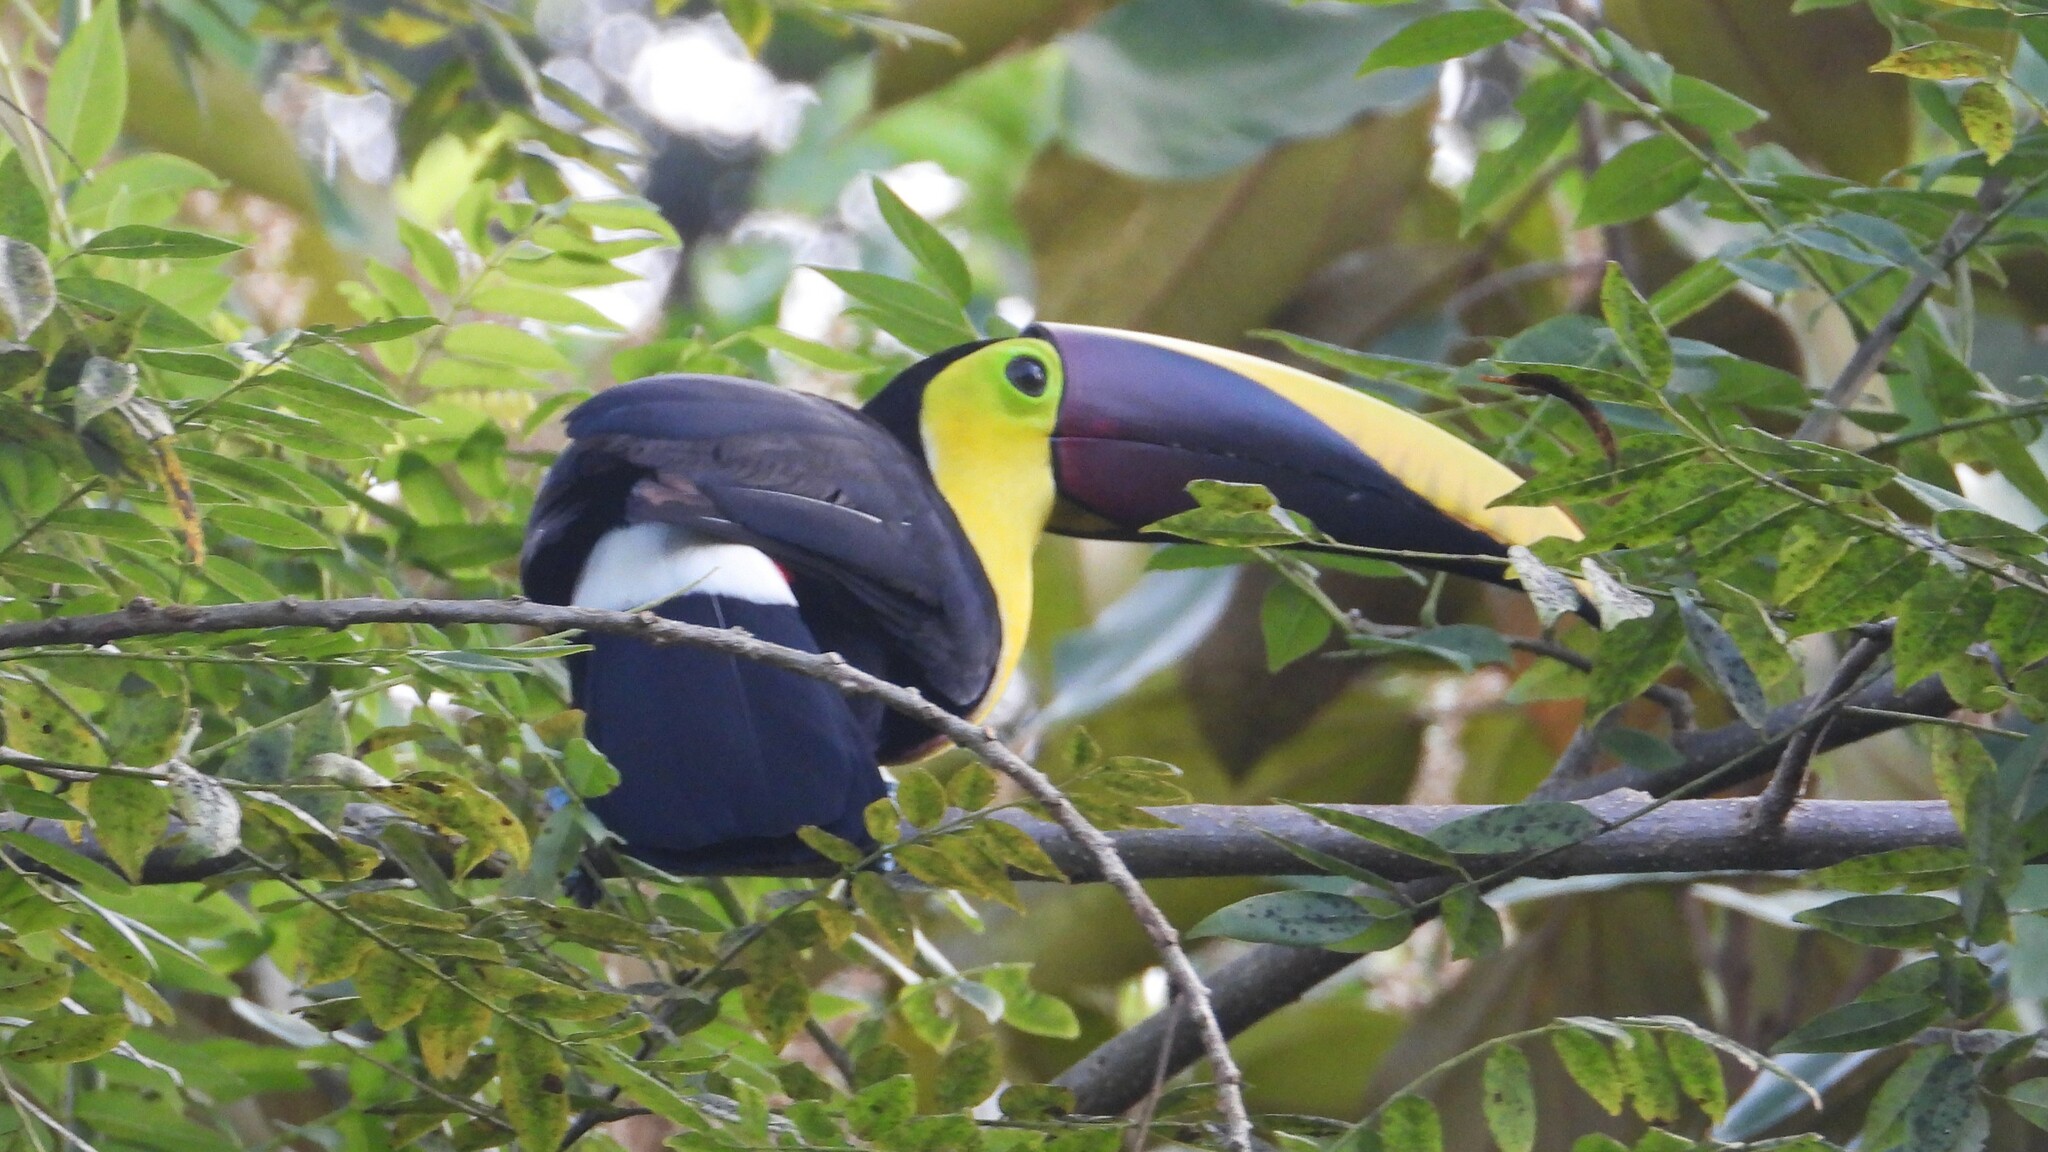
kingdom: Animalia
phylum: Chordata
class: Aves
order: Piciformes
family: Ramphastidae
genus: Ramphastos
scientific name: Ramphastos ambiguus
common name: Yellow-throated toucan
